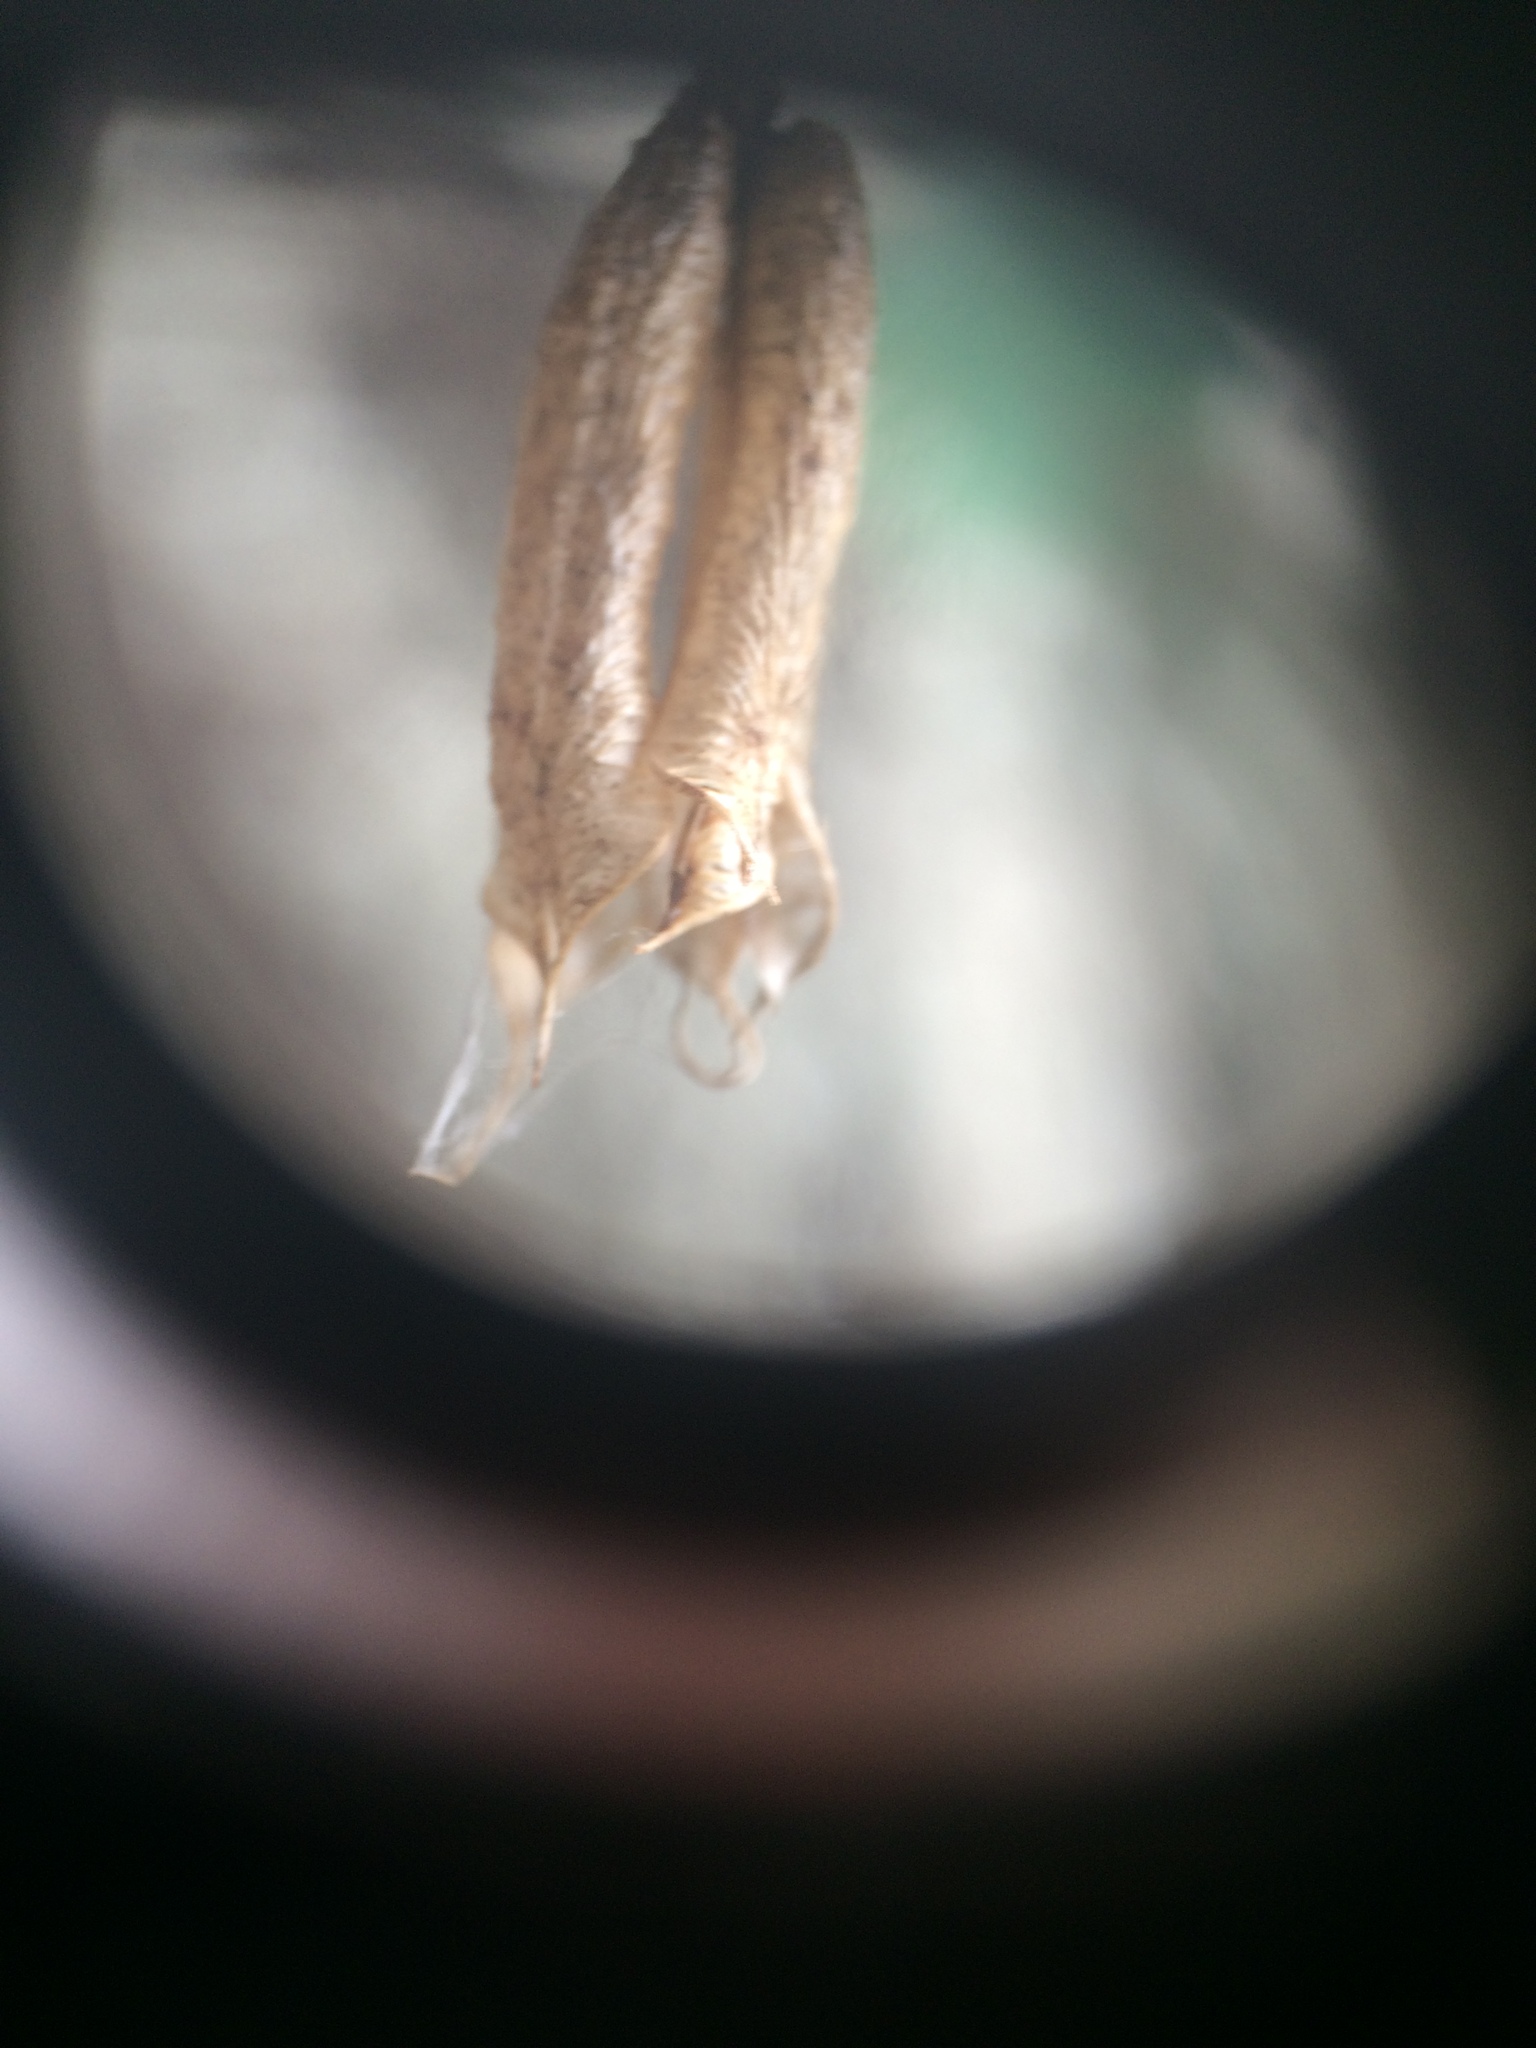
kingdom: Plantae
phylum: Tracheophyta
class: Magnoliopsida
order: Ranunculales
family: Ranunculaceae
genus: Aquilegia
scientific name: Aquilegia
